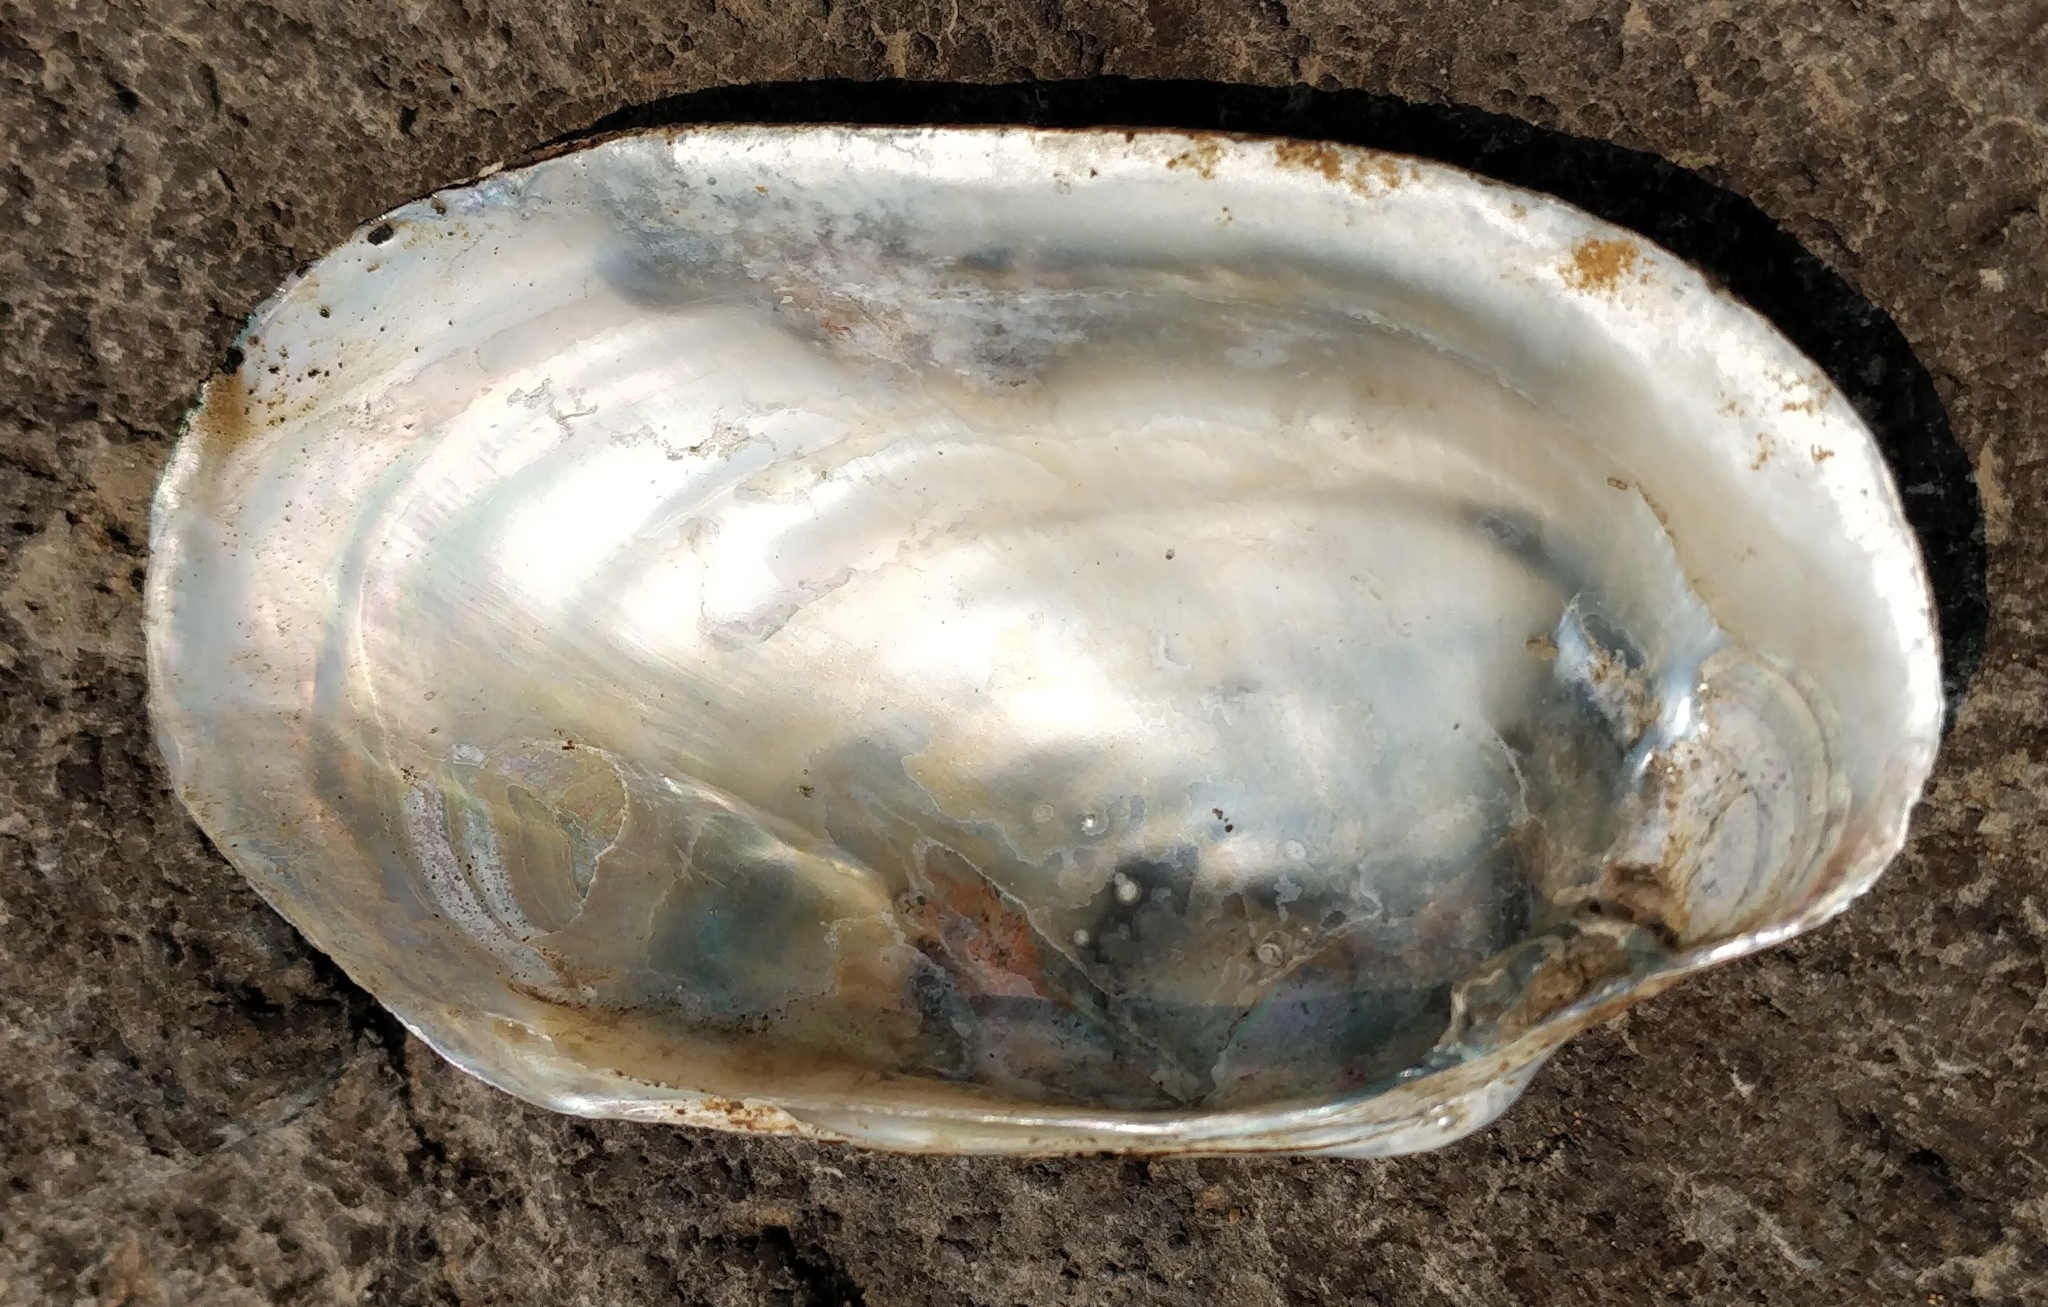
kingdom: Animalia
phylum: Mollusca
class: Bivalvia
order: Unionida
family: Unionidae
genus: Lampsilis
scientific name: Lampsilis siliquoidea
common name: Fatmucket
